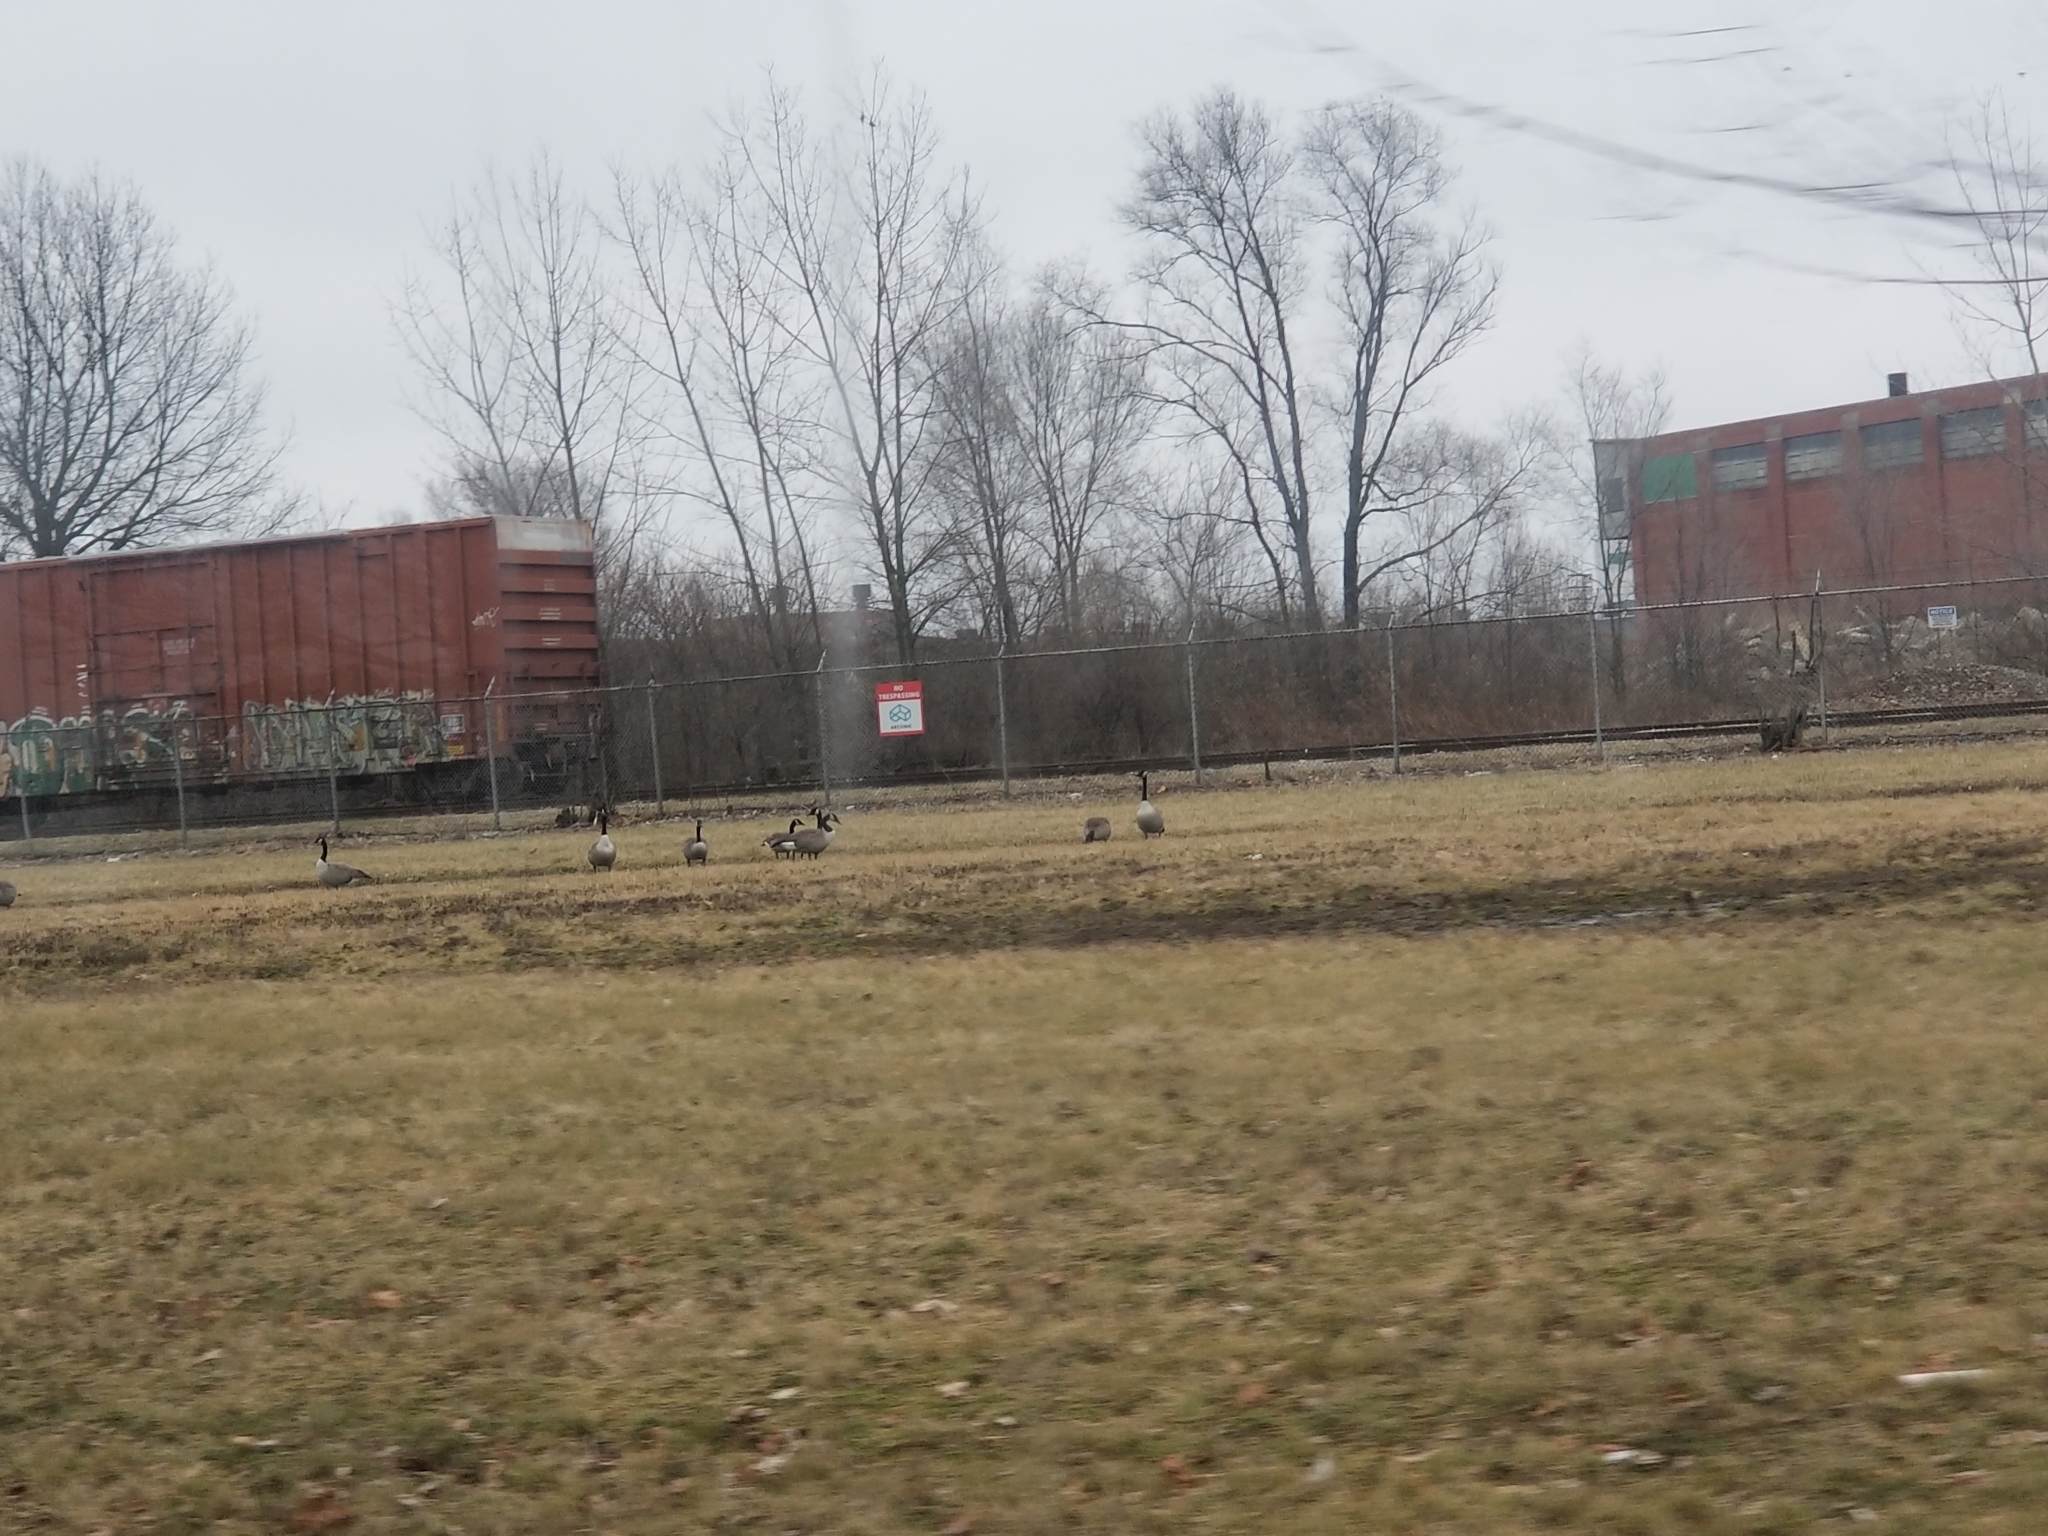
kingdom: Animalia
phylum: Chordata
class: Aves
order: Anseriformes
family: Anatidae
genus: Branta
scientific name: Branta canadensis
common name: Canada goose
